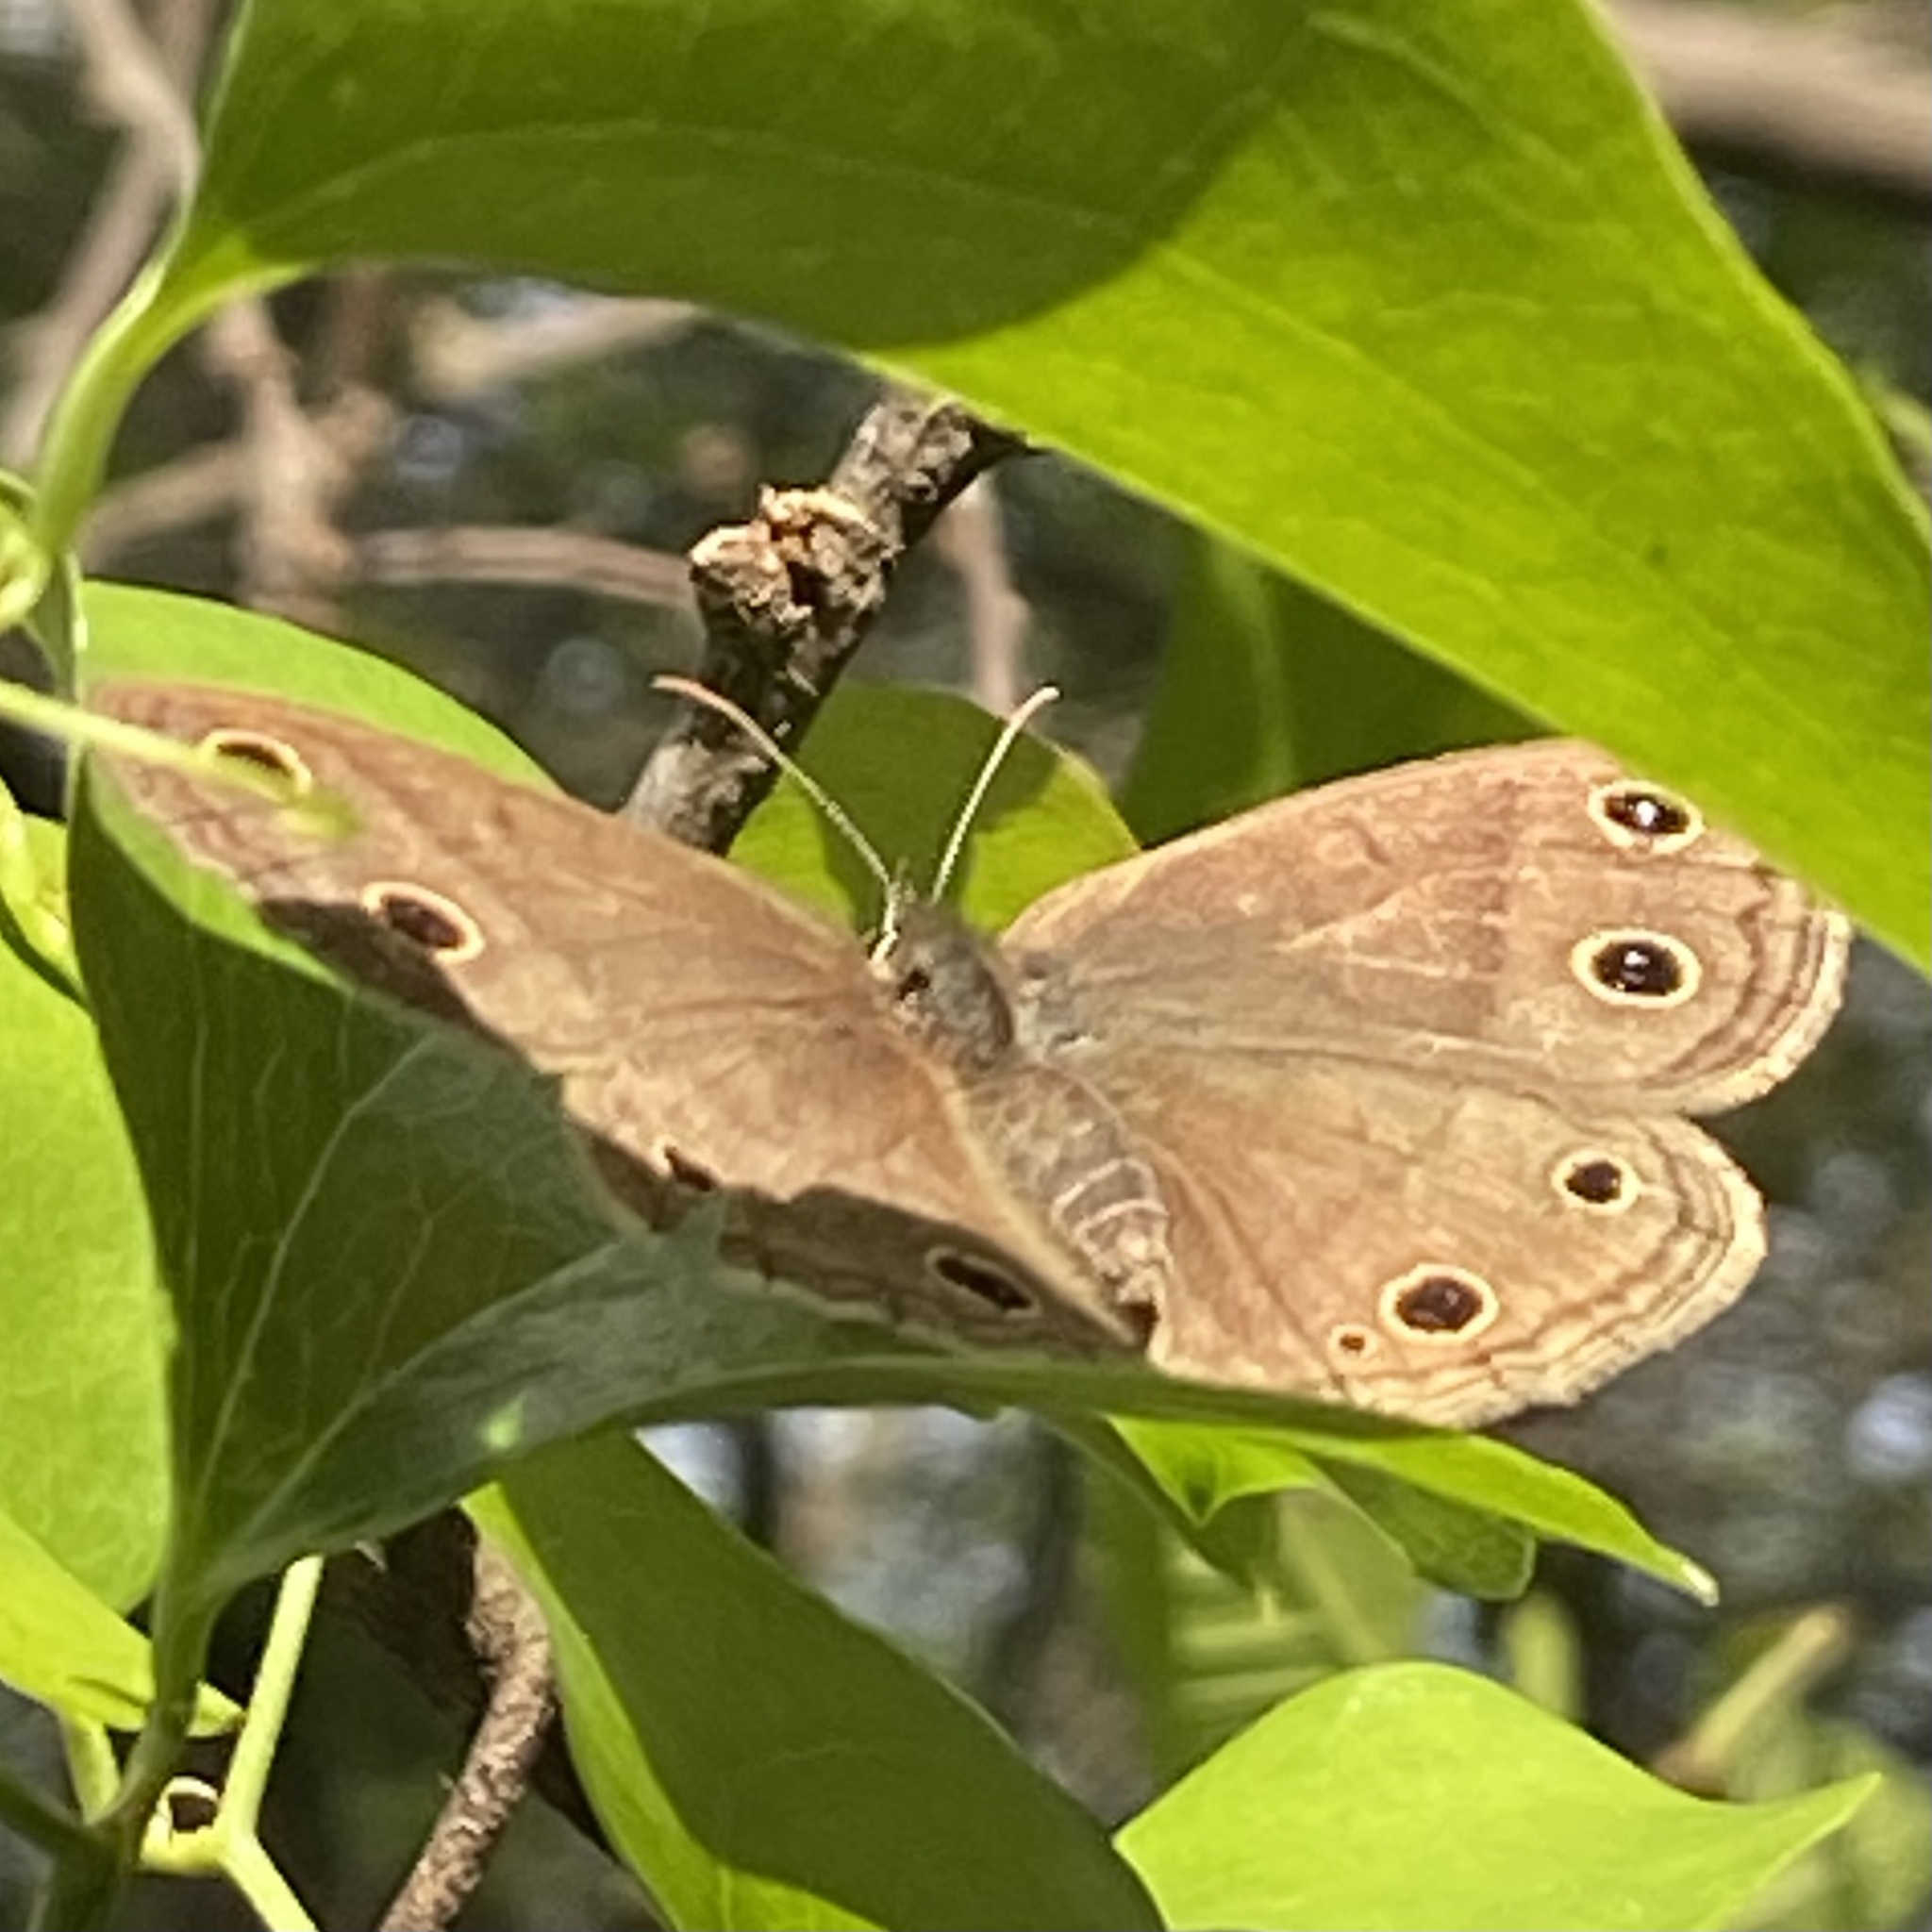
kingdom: Animalia
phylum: Arthropoda
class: Insecta
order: Lepidoptera
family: Nymphalidae
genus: Euptychia
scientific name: Euptychia cymela
